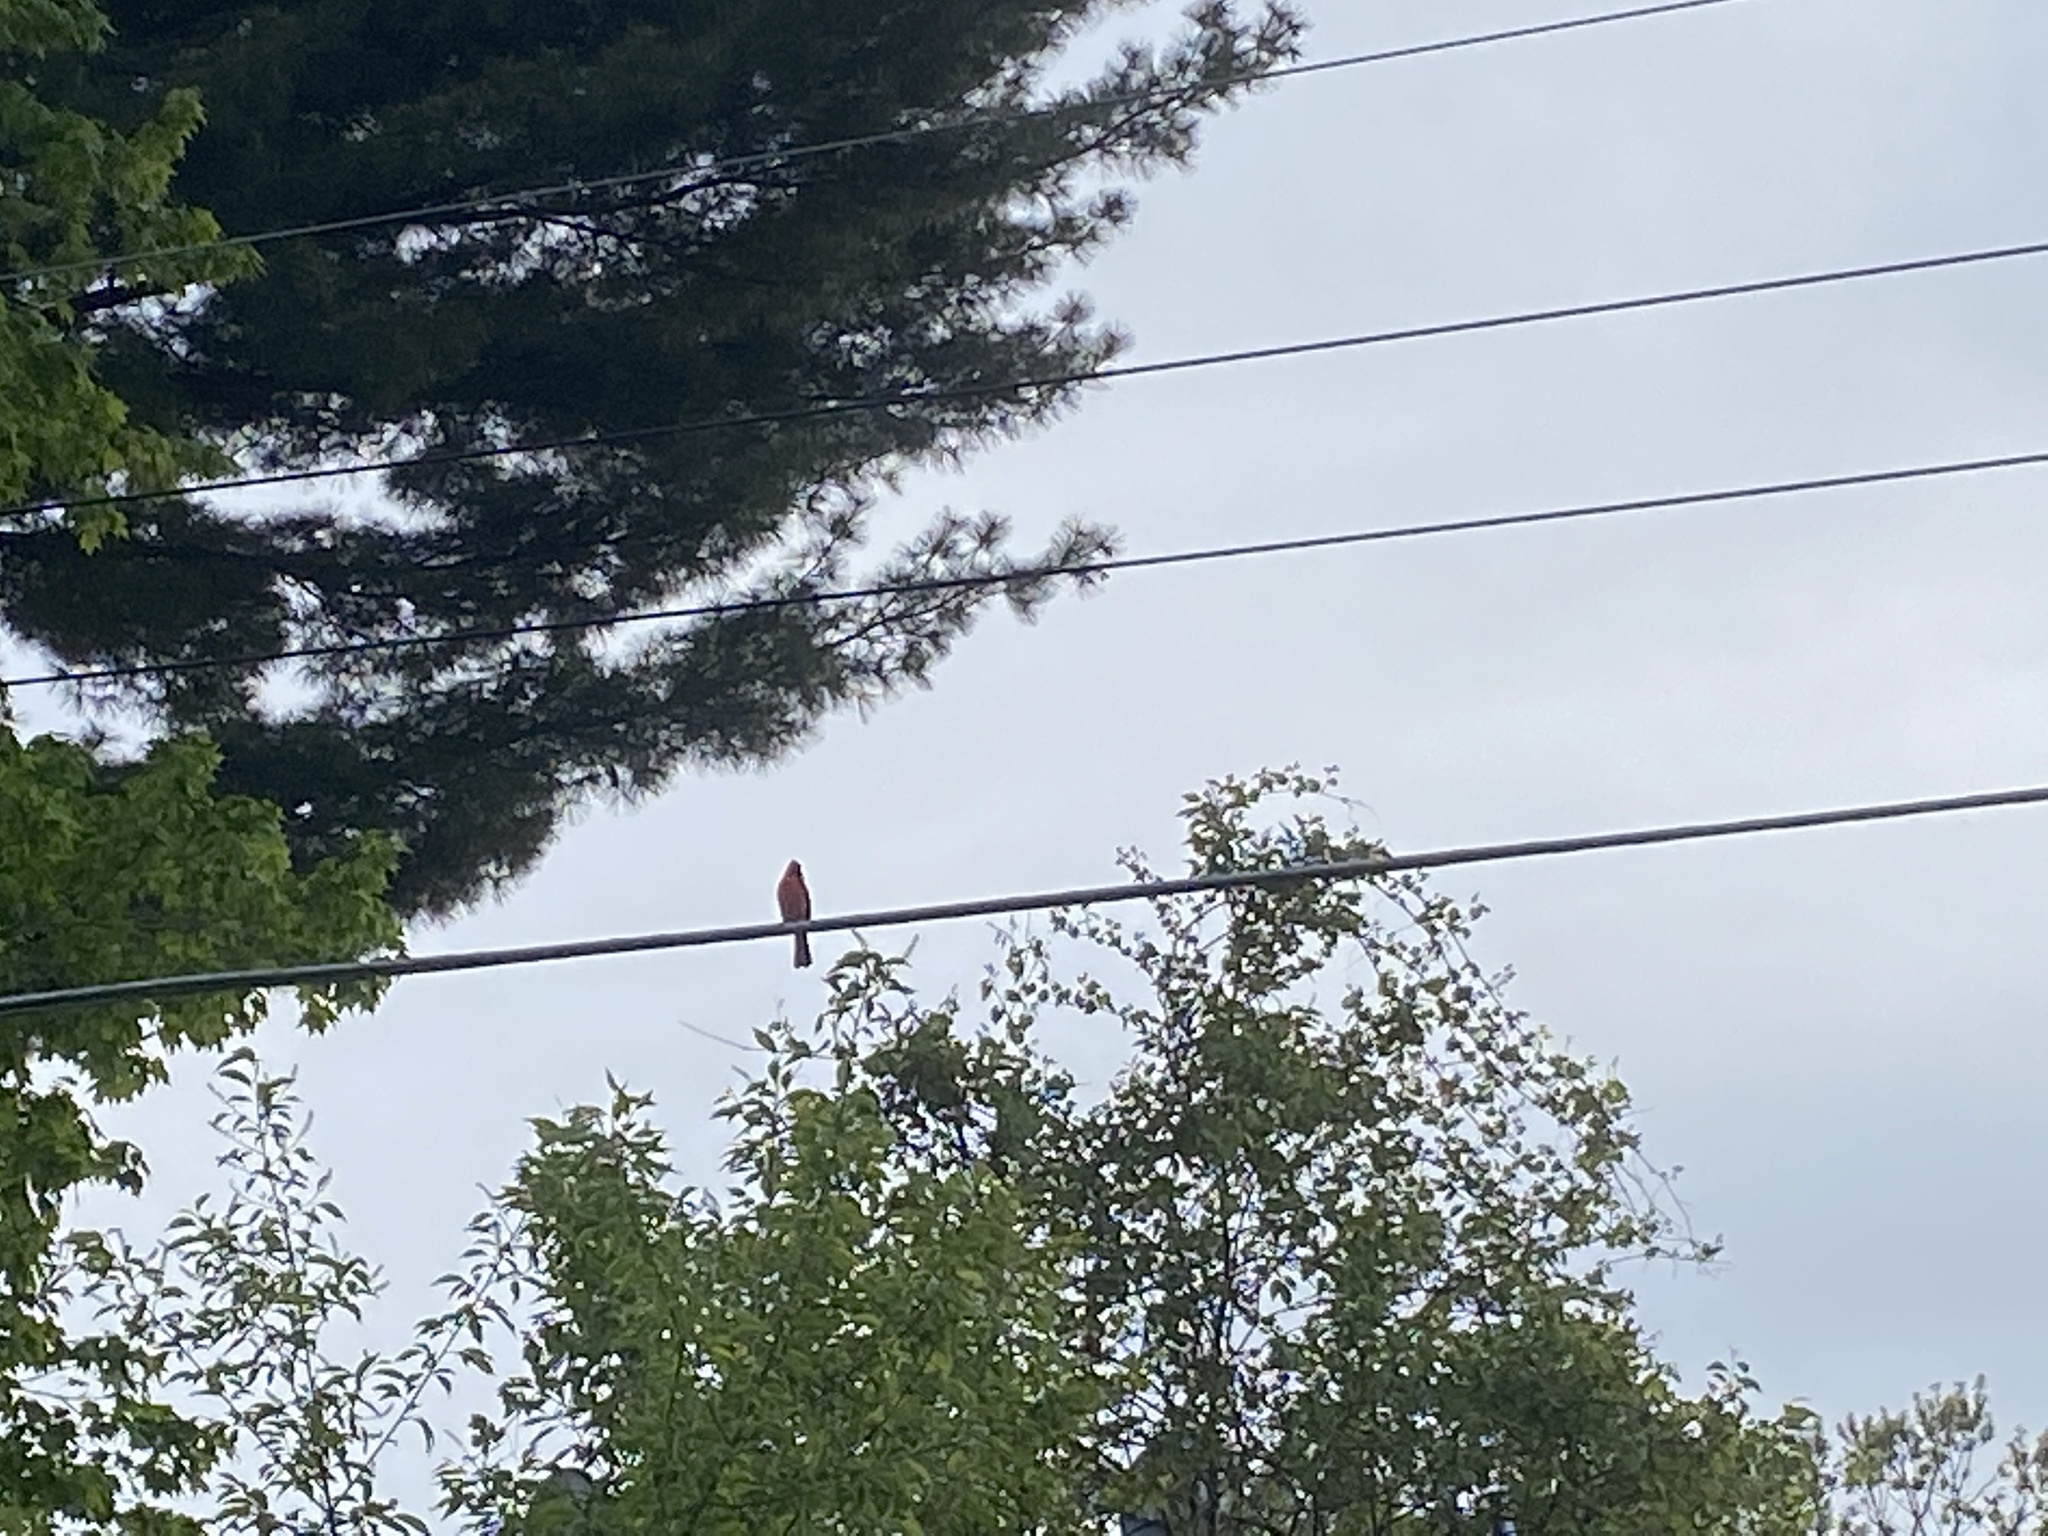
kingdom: Animalia
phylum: Chordata
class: Aves
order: Passeriformes
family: Cardinalidae
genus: Cardinalis
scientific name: Cardinalis cardinalis
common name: Northern cardinal
